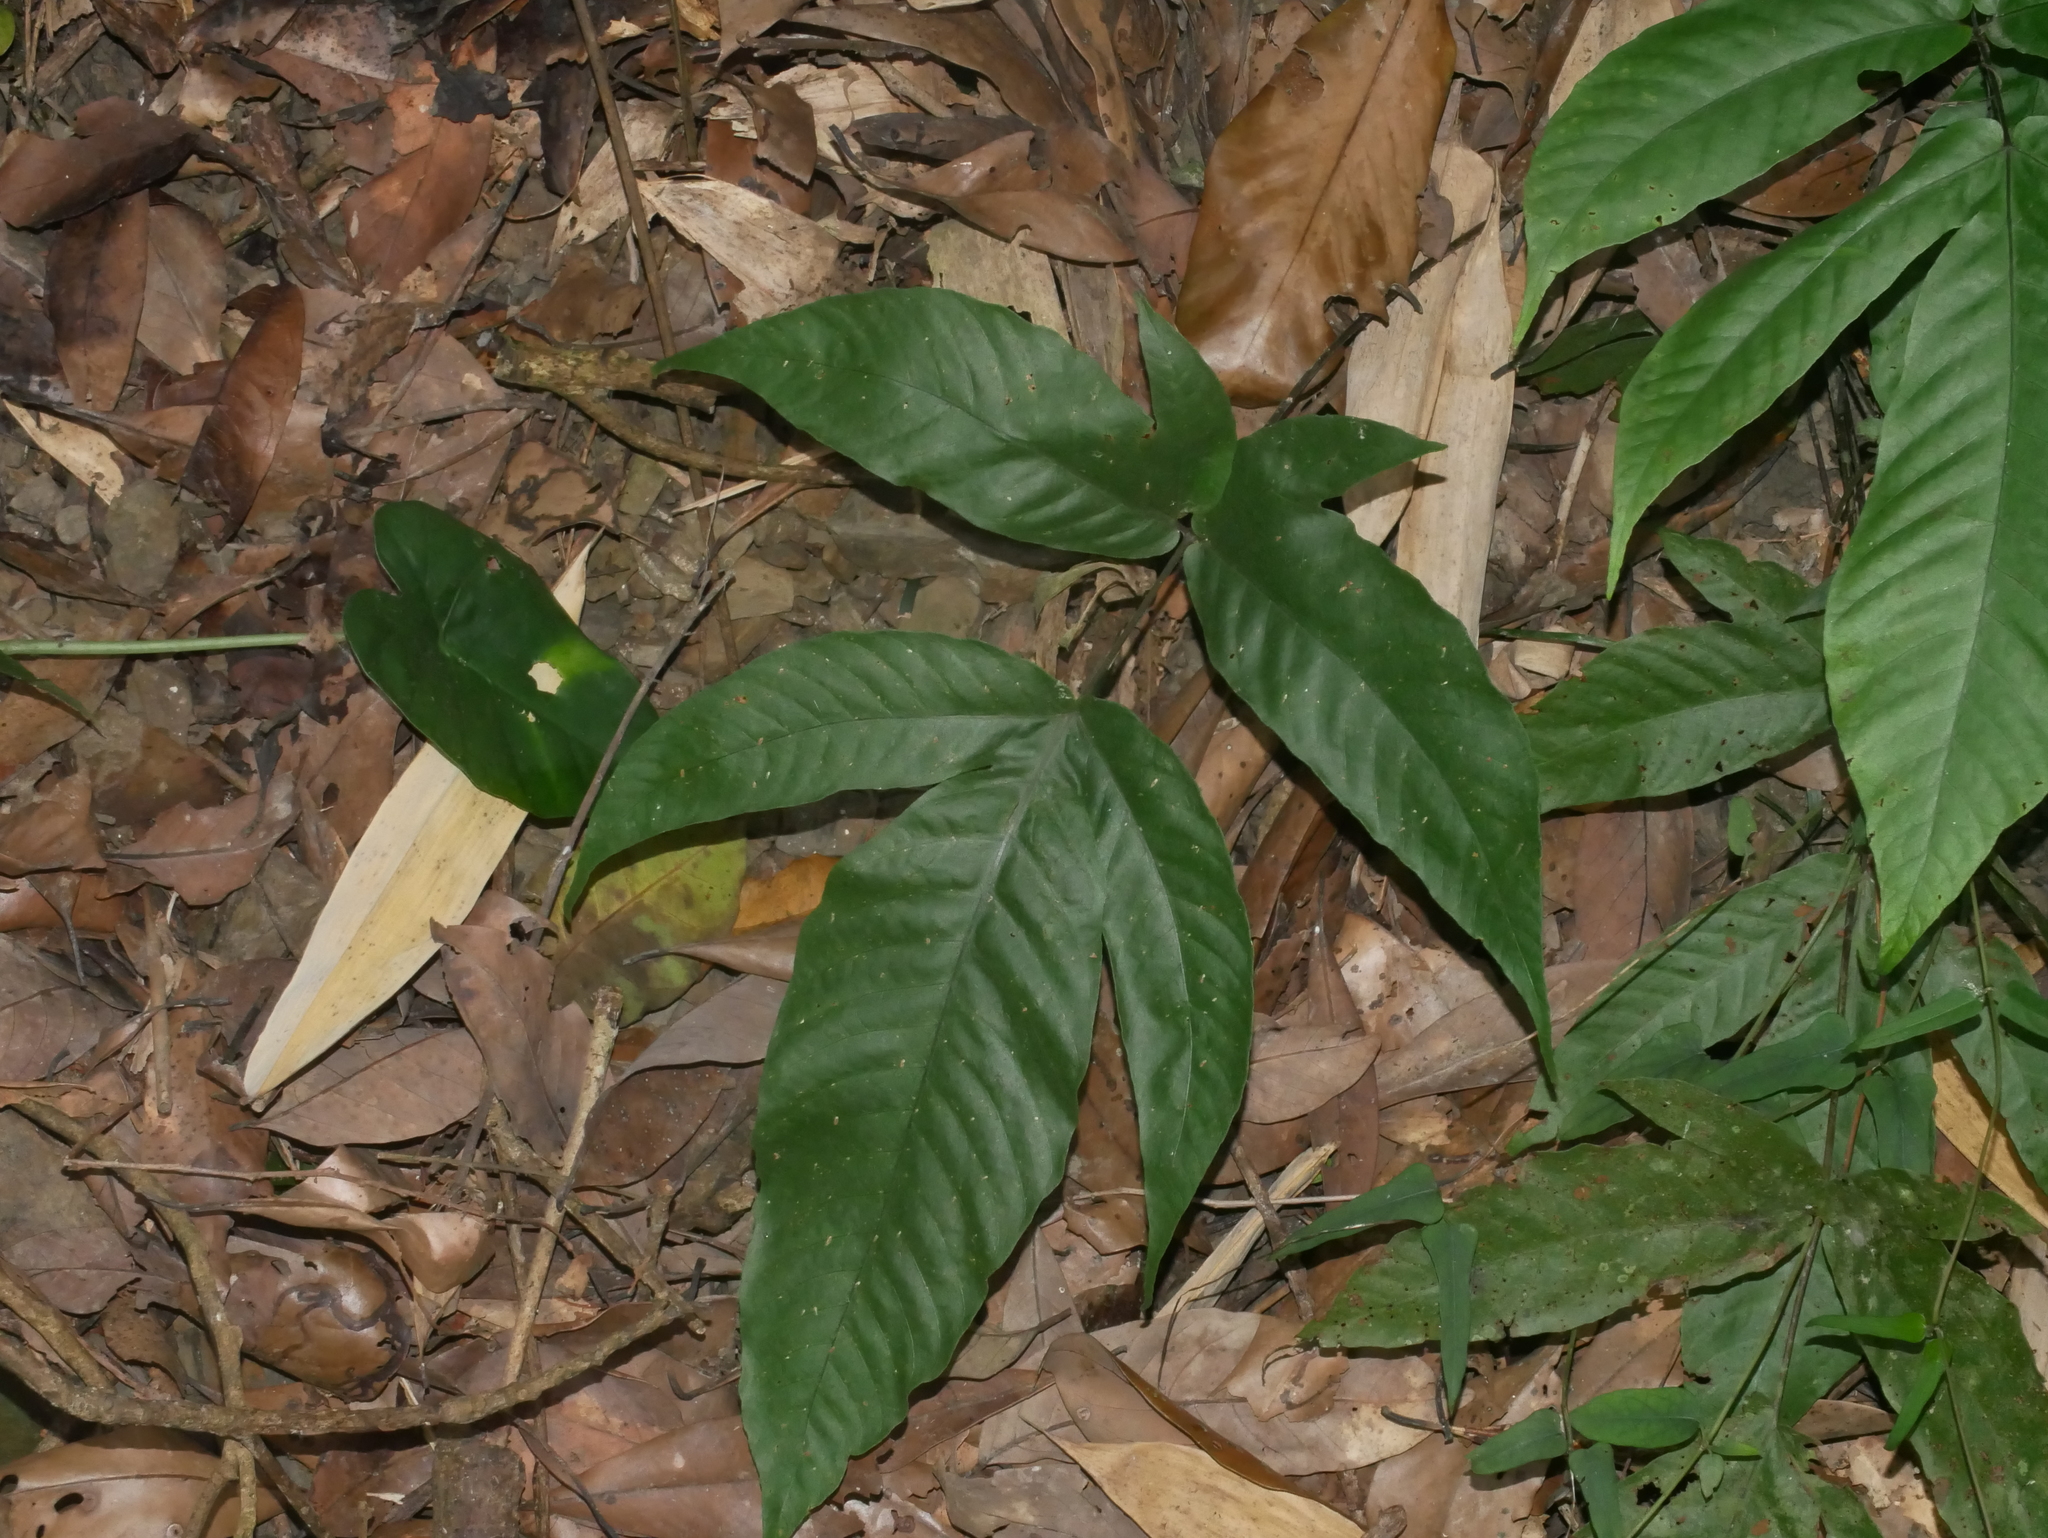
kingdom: Plantae
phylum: Tracheophyta
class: Polypodiopsida
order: Polypodiales
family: Tectariaceae
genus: Tectaria
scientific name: Tectaria polymorpha
